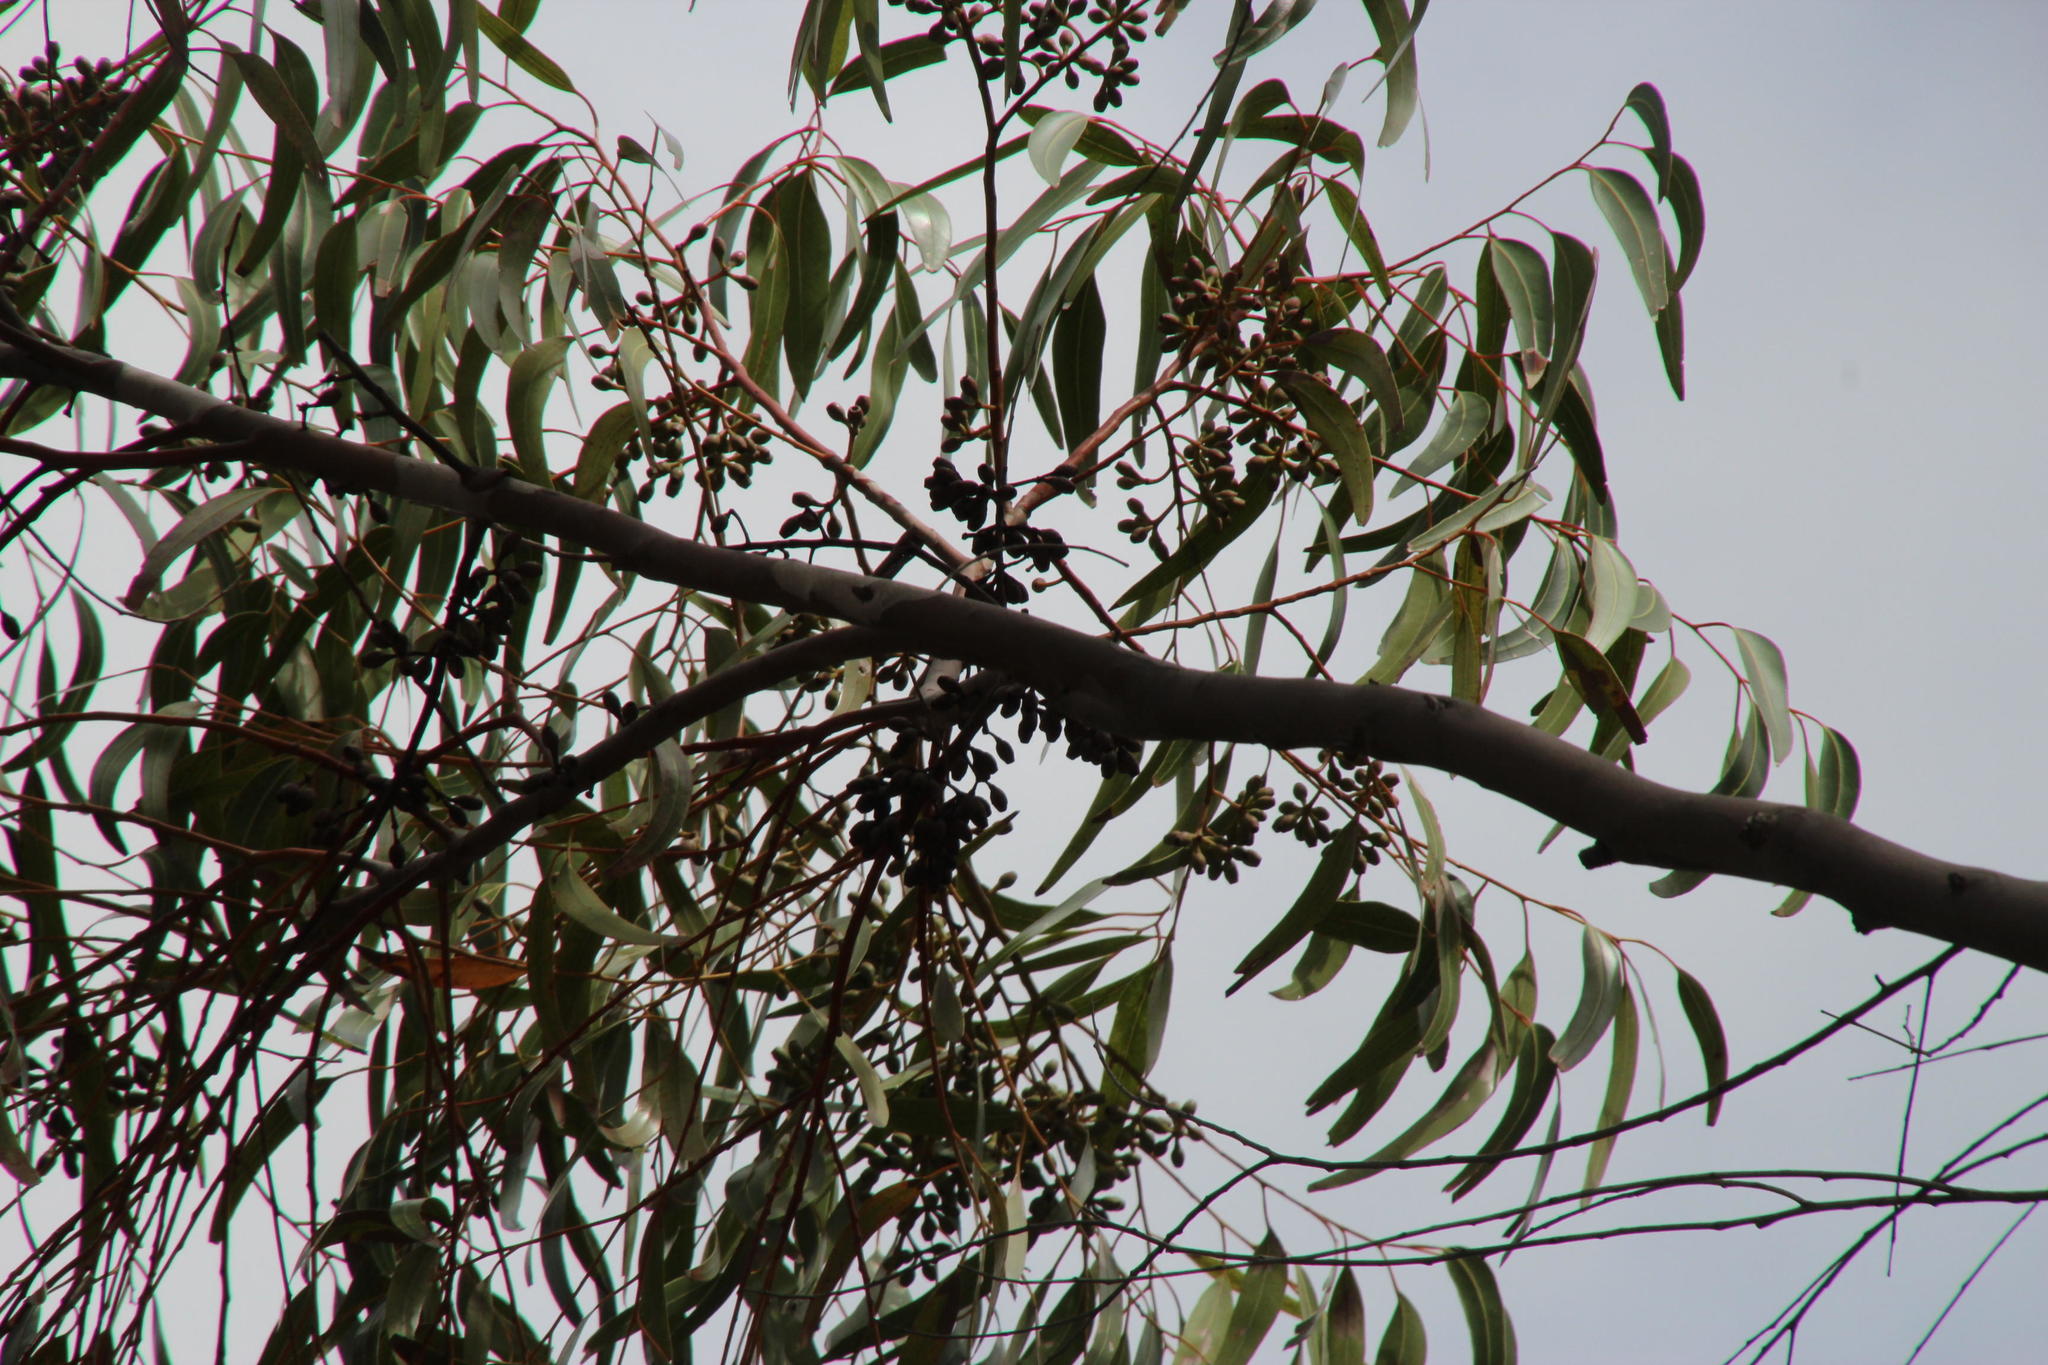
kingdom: Plantae
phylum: Tracheophyta
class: Magnoliopsida
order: Myrtales
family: Myrtaceae
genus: Eucalyptus
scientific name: Eucalyptus cladocalyx
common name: Sugargum
